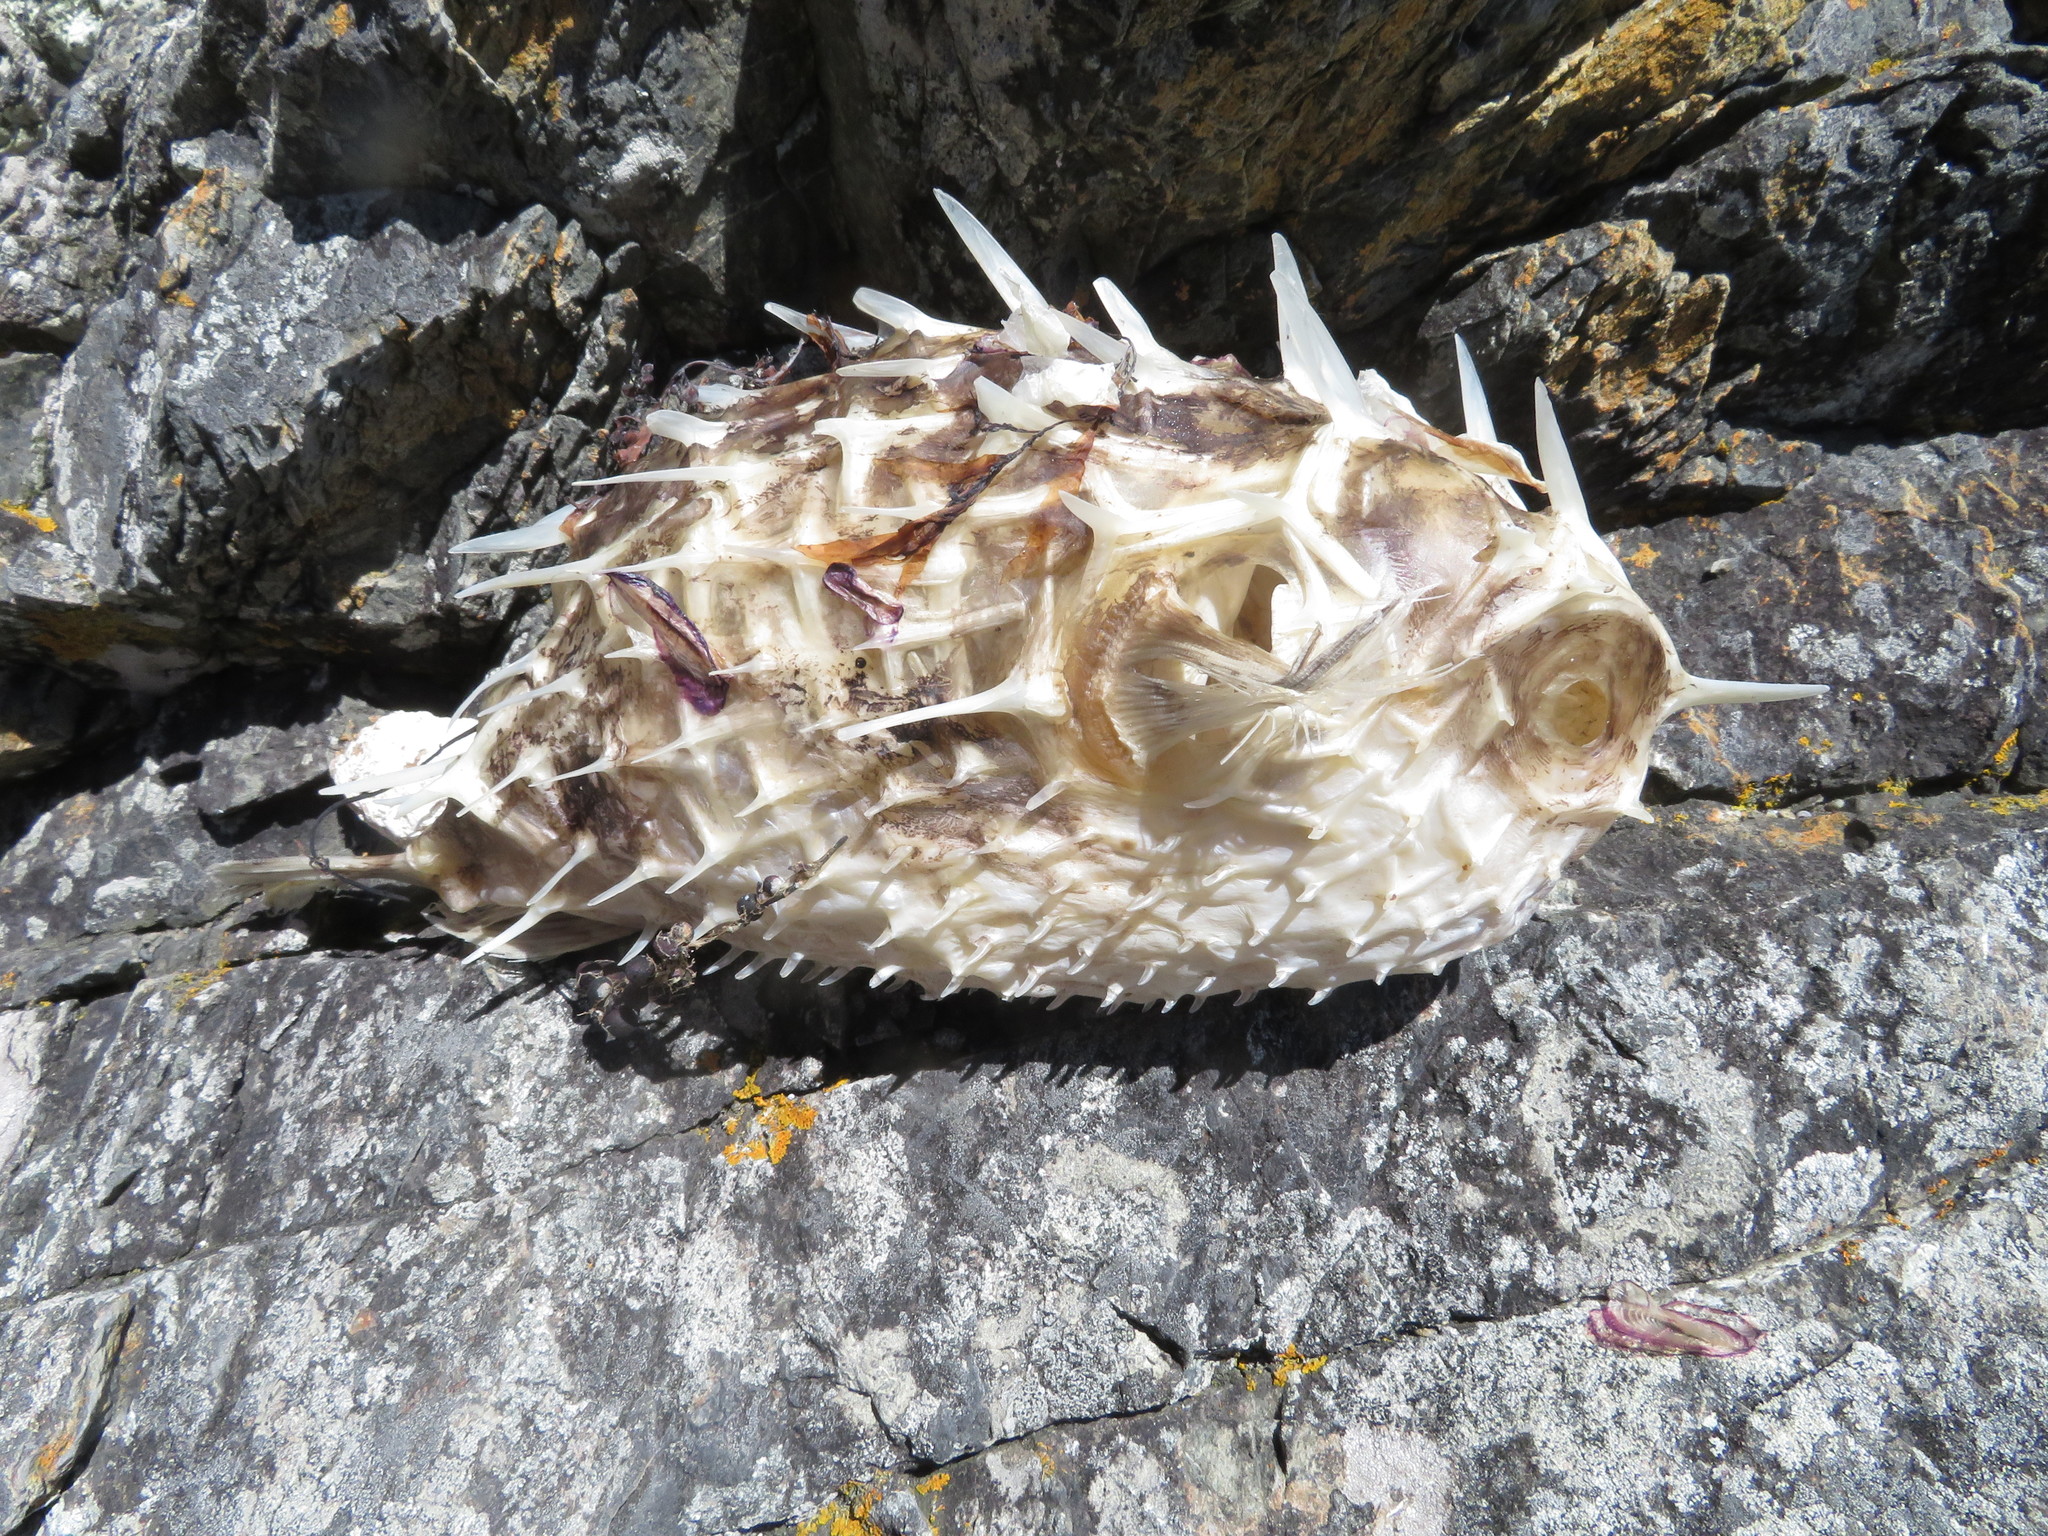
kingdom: Animalia
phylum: Chordata
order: Tetraodontiformes
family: Diodontidae
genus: Allomycterus
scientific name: Allomycterus pilatus
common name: No common name
